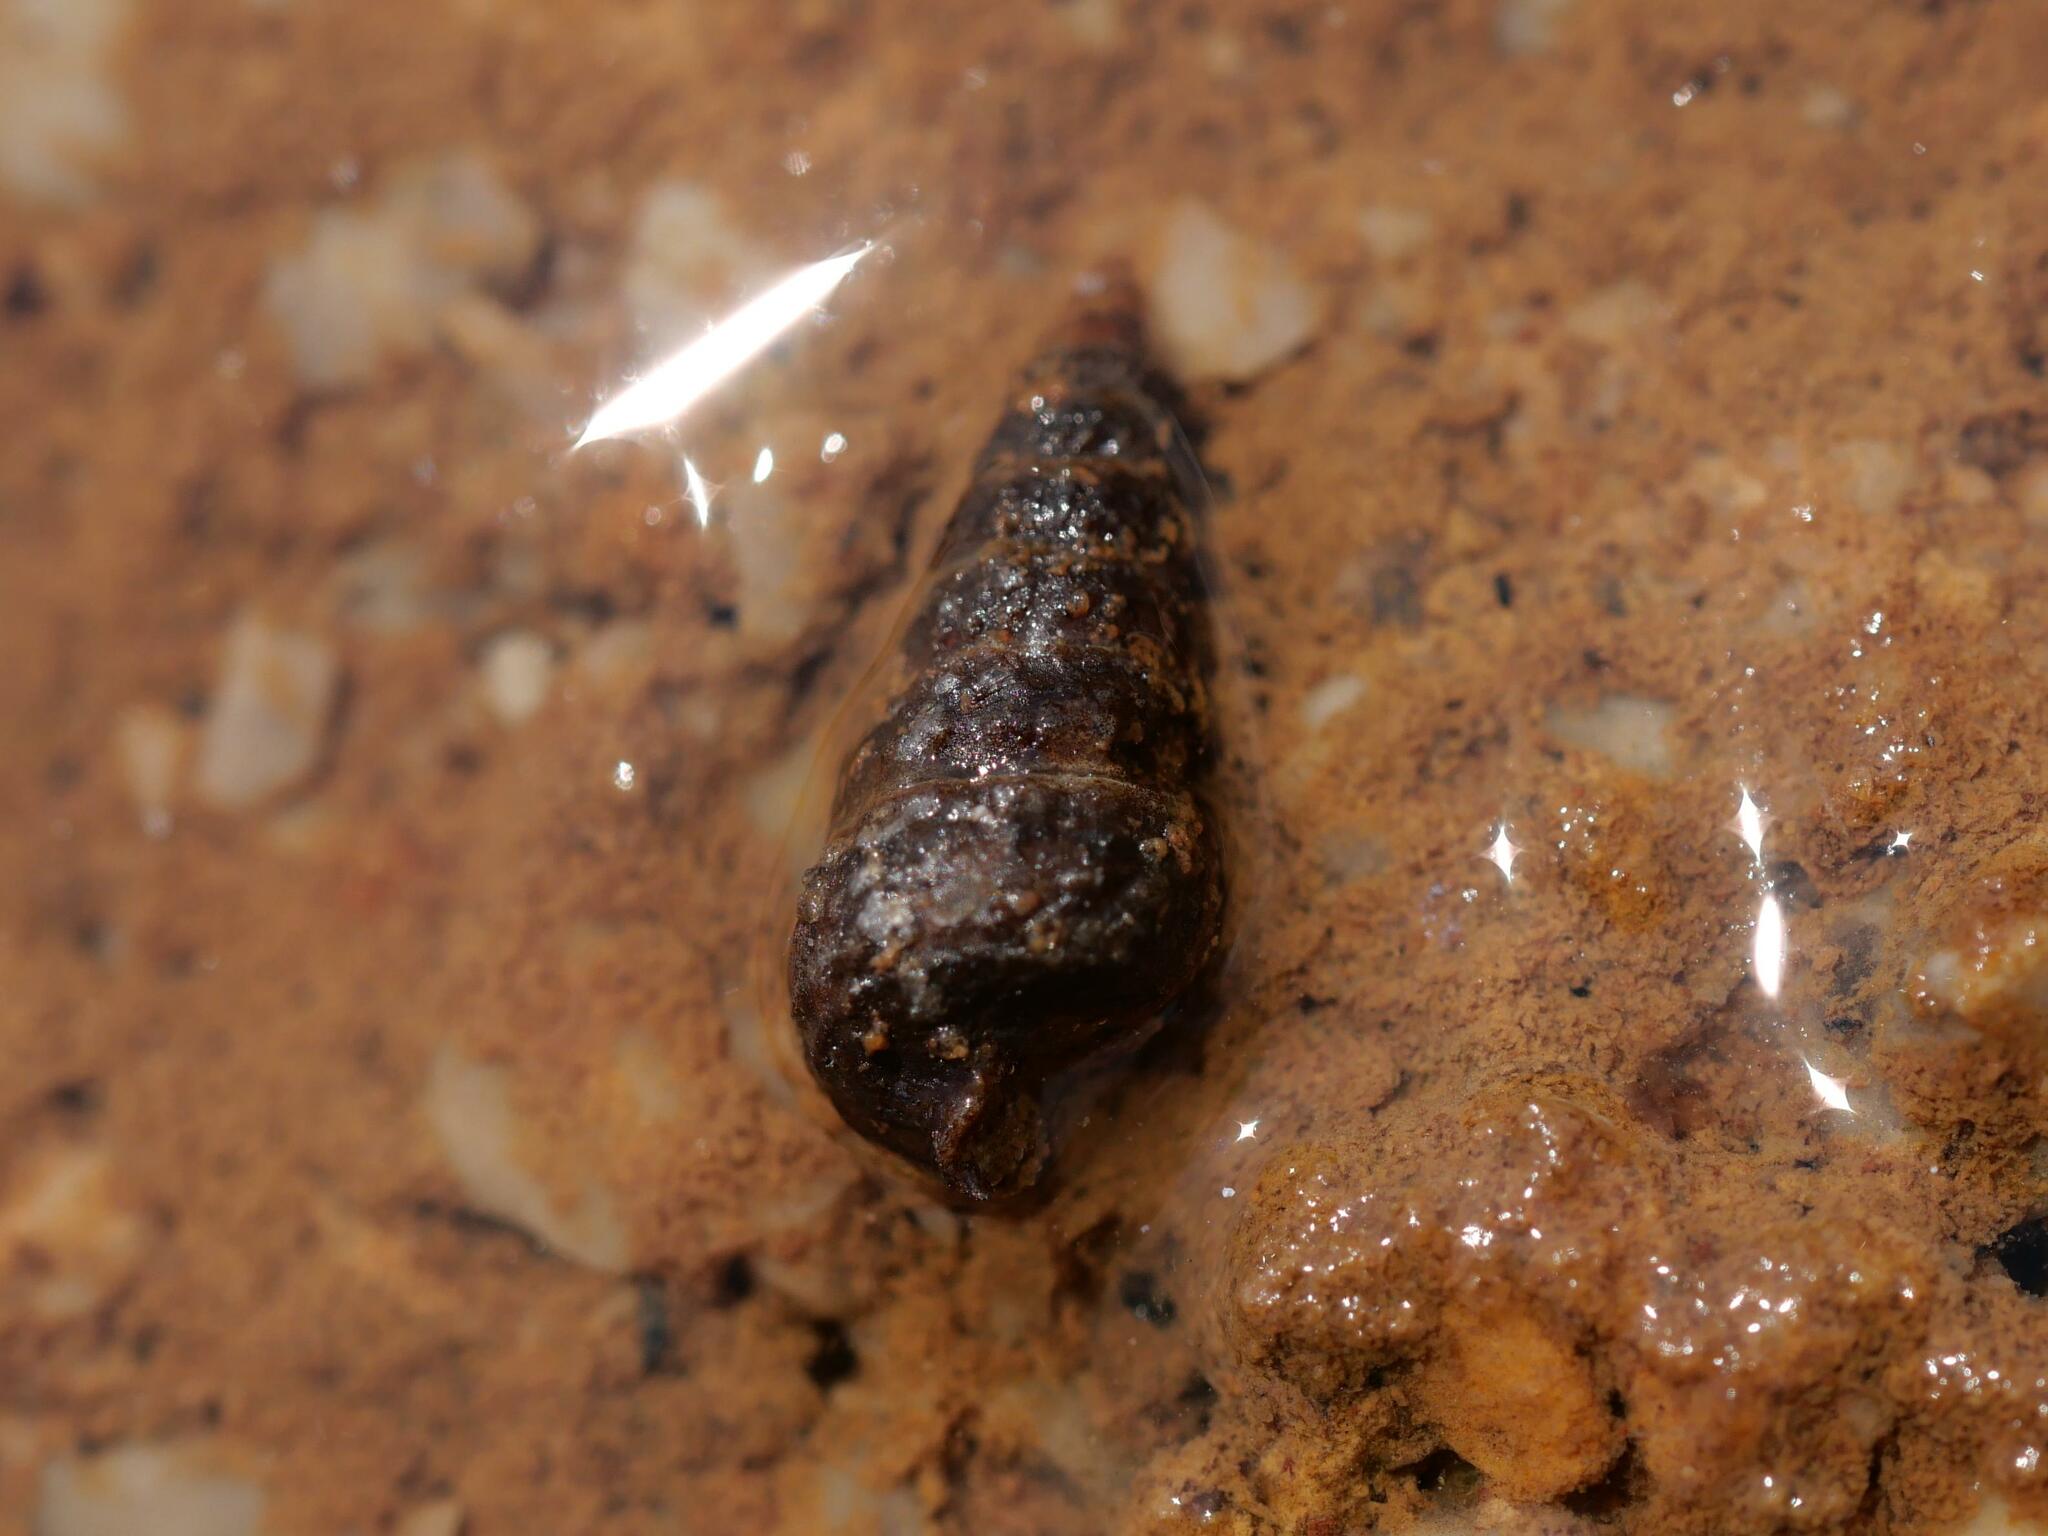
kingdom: Animalia
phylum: Mollusca
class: Gastropoda
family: Potamididae
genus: Pirenella
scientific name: Pirenella conica
